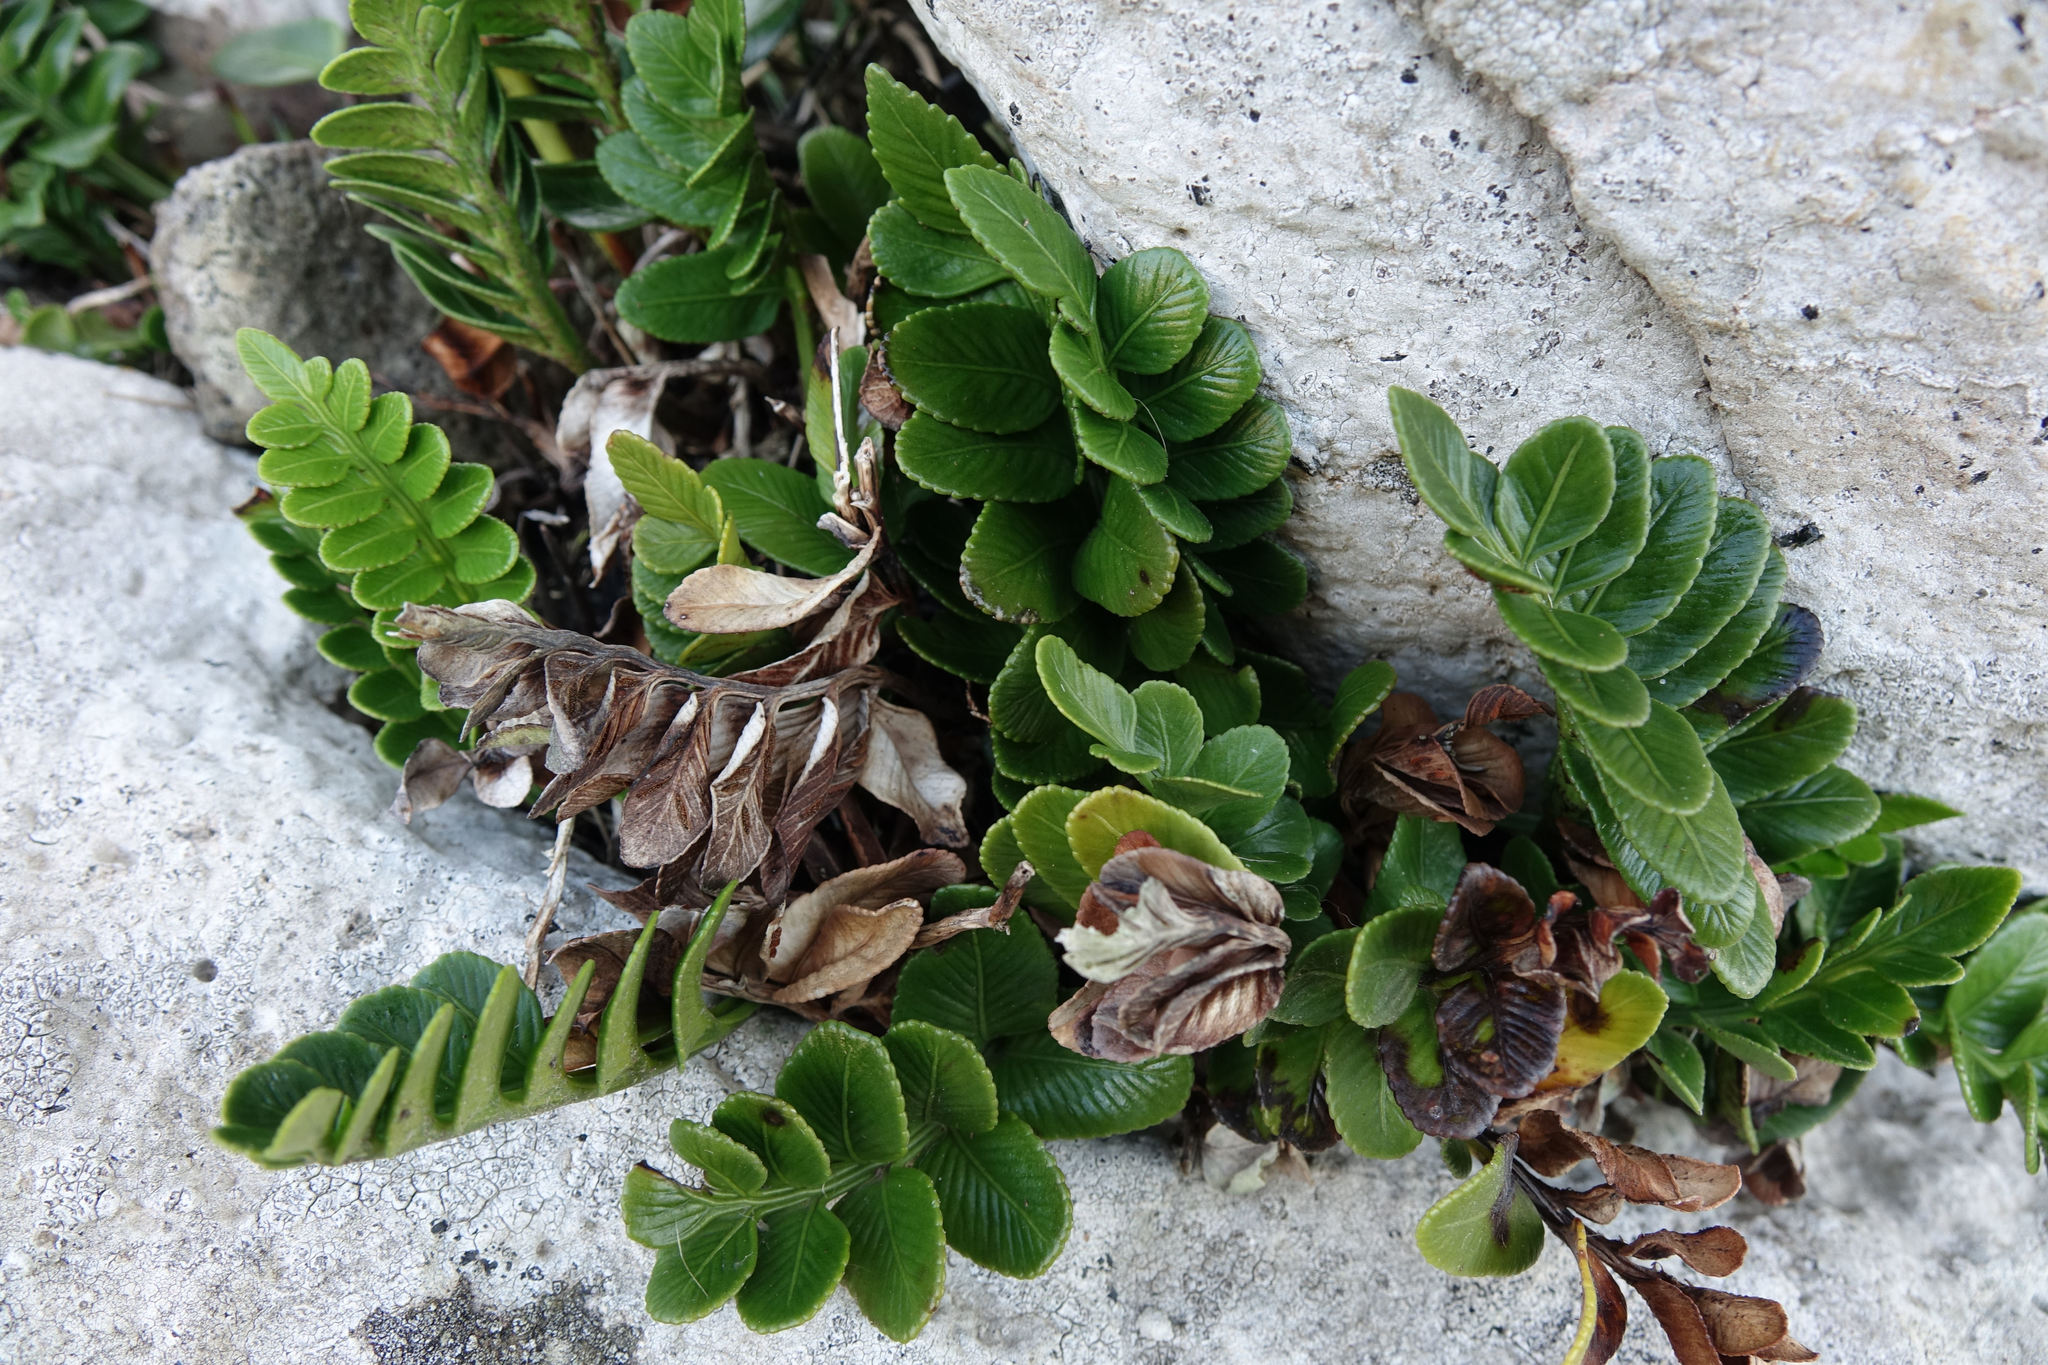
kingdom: Plantae
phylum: Tracheophyta
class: Polypodiopsida
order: Polypodiales
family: Aspleniaceae
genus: Asplenium
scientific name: Asplenium obtusatum
